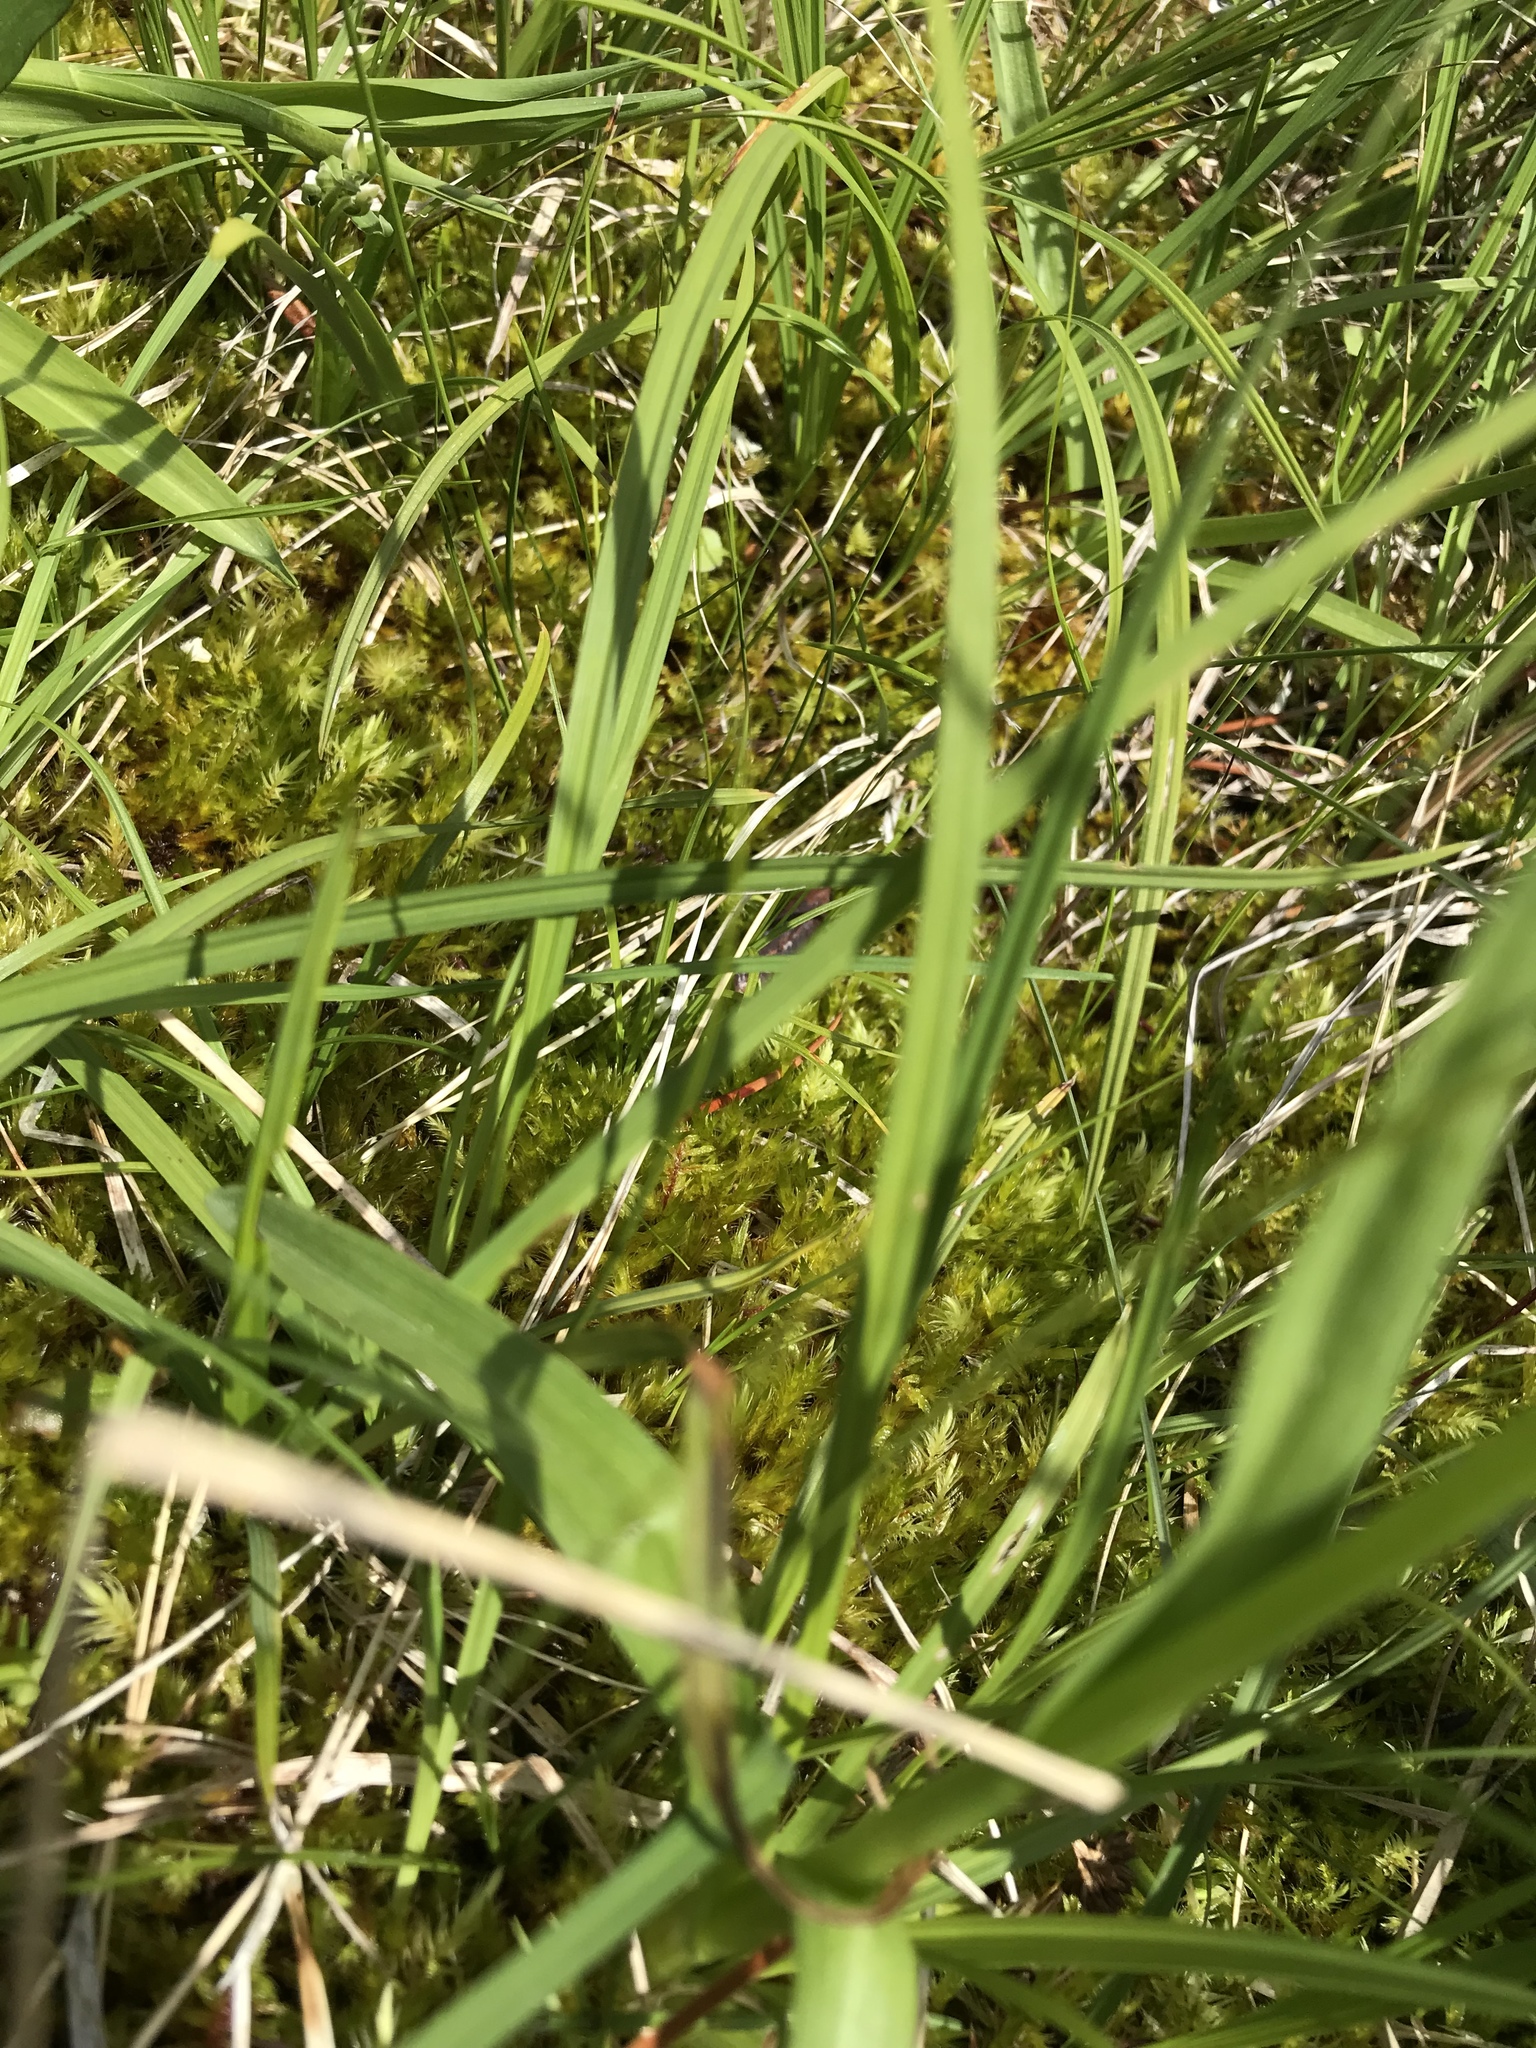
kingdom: Plantae
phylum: Tracheophyta
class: Liliopsida
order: Asparagales
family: Orchidaceae
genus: Platanthera
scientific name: Platanthera dilatata
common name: Bog candles
